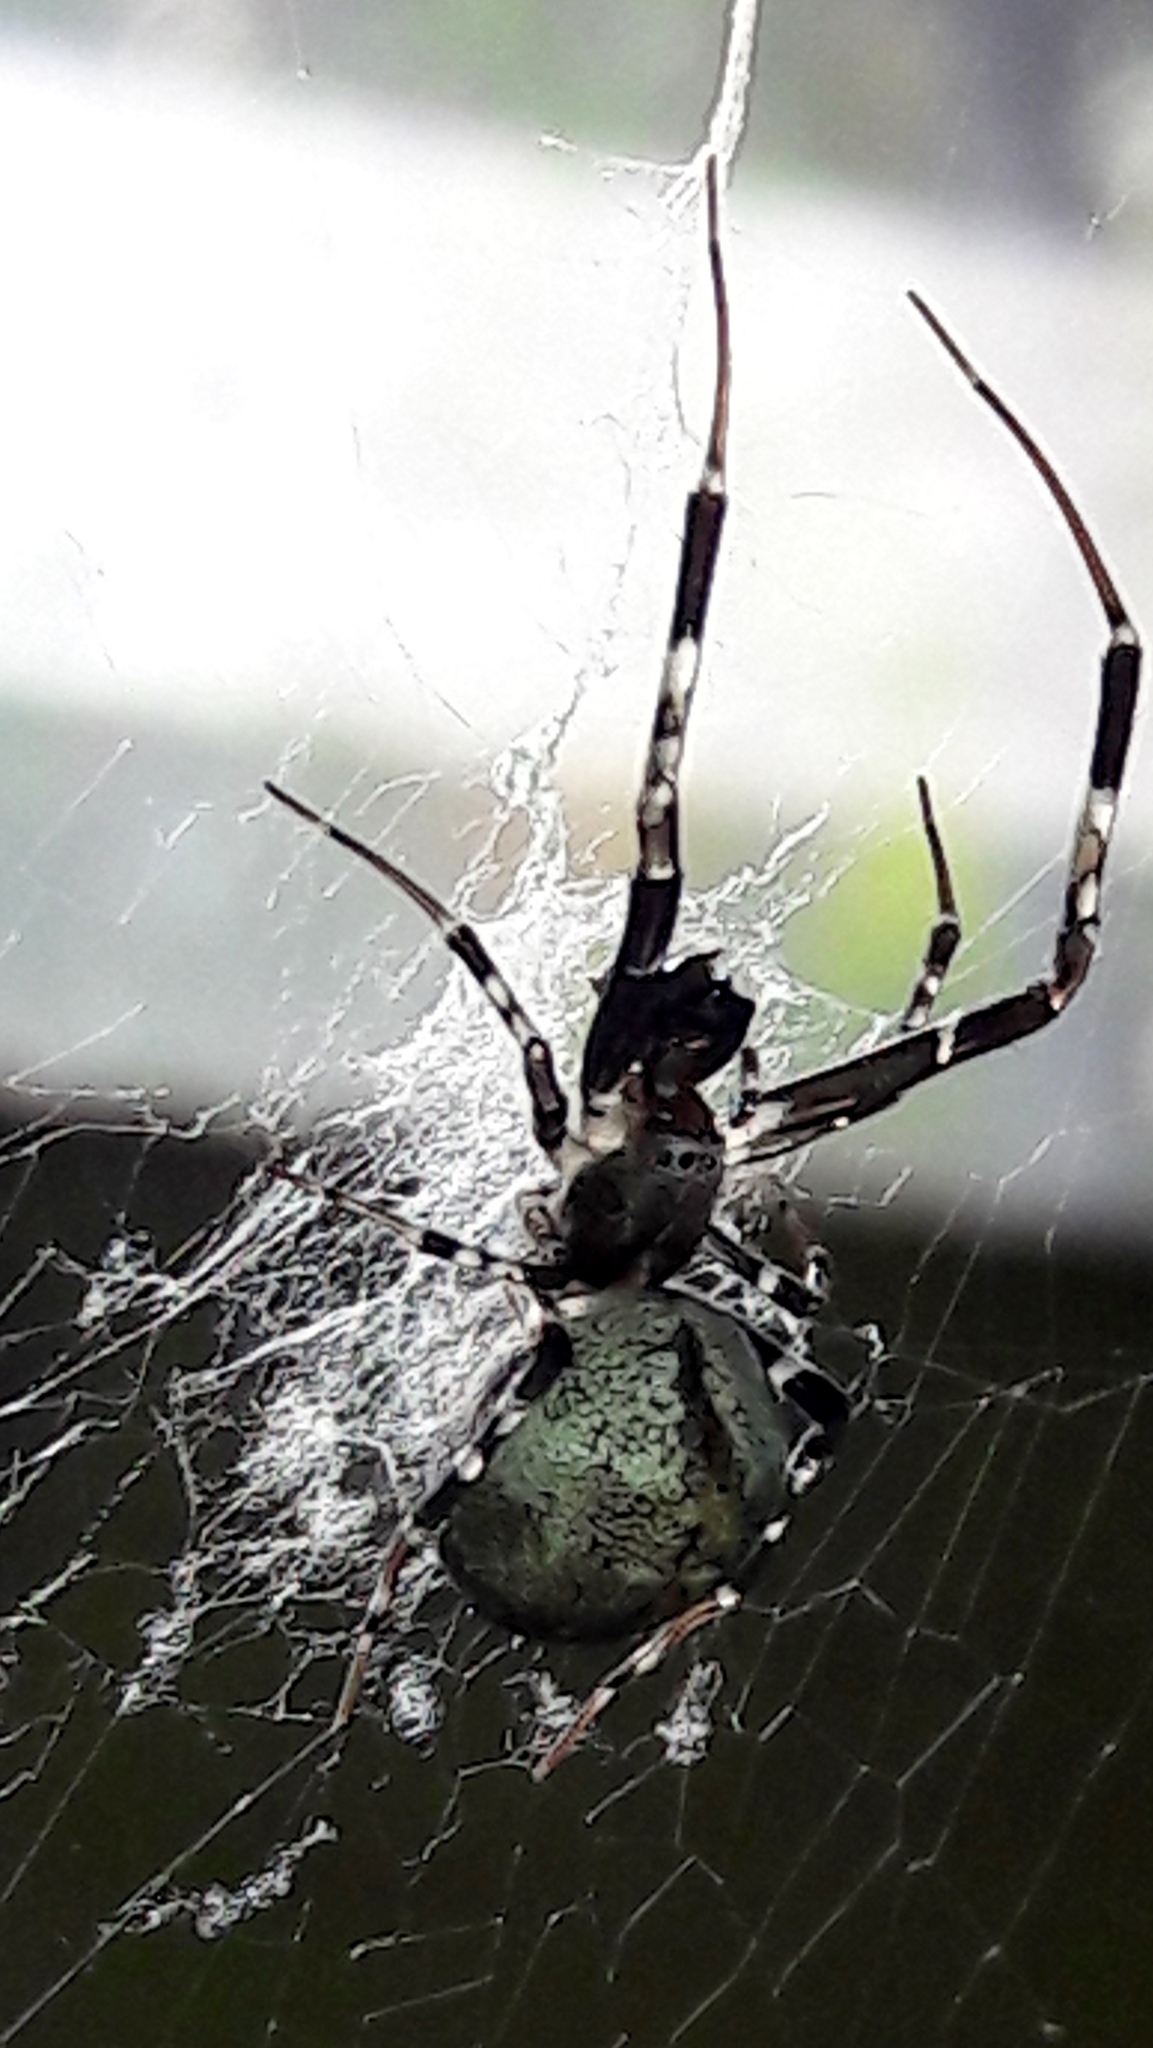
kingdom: Animalia
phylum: Arthropoda
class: Arachnida
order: Araneae
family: Uloboridae
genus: Zosis
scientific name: Zosis geniculata
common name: Hackled orb weavers
